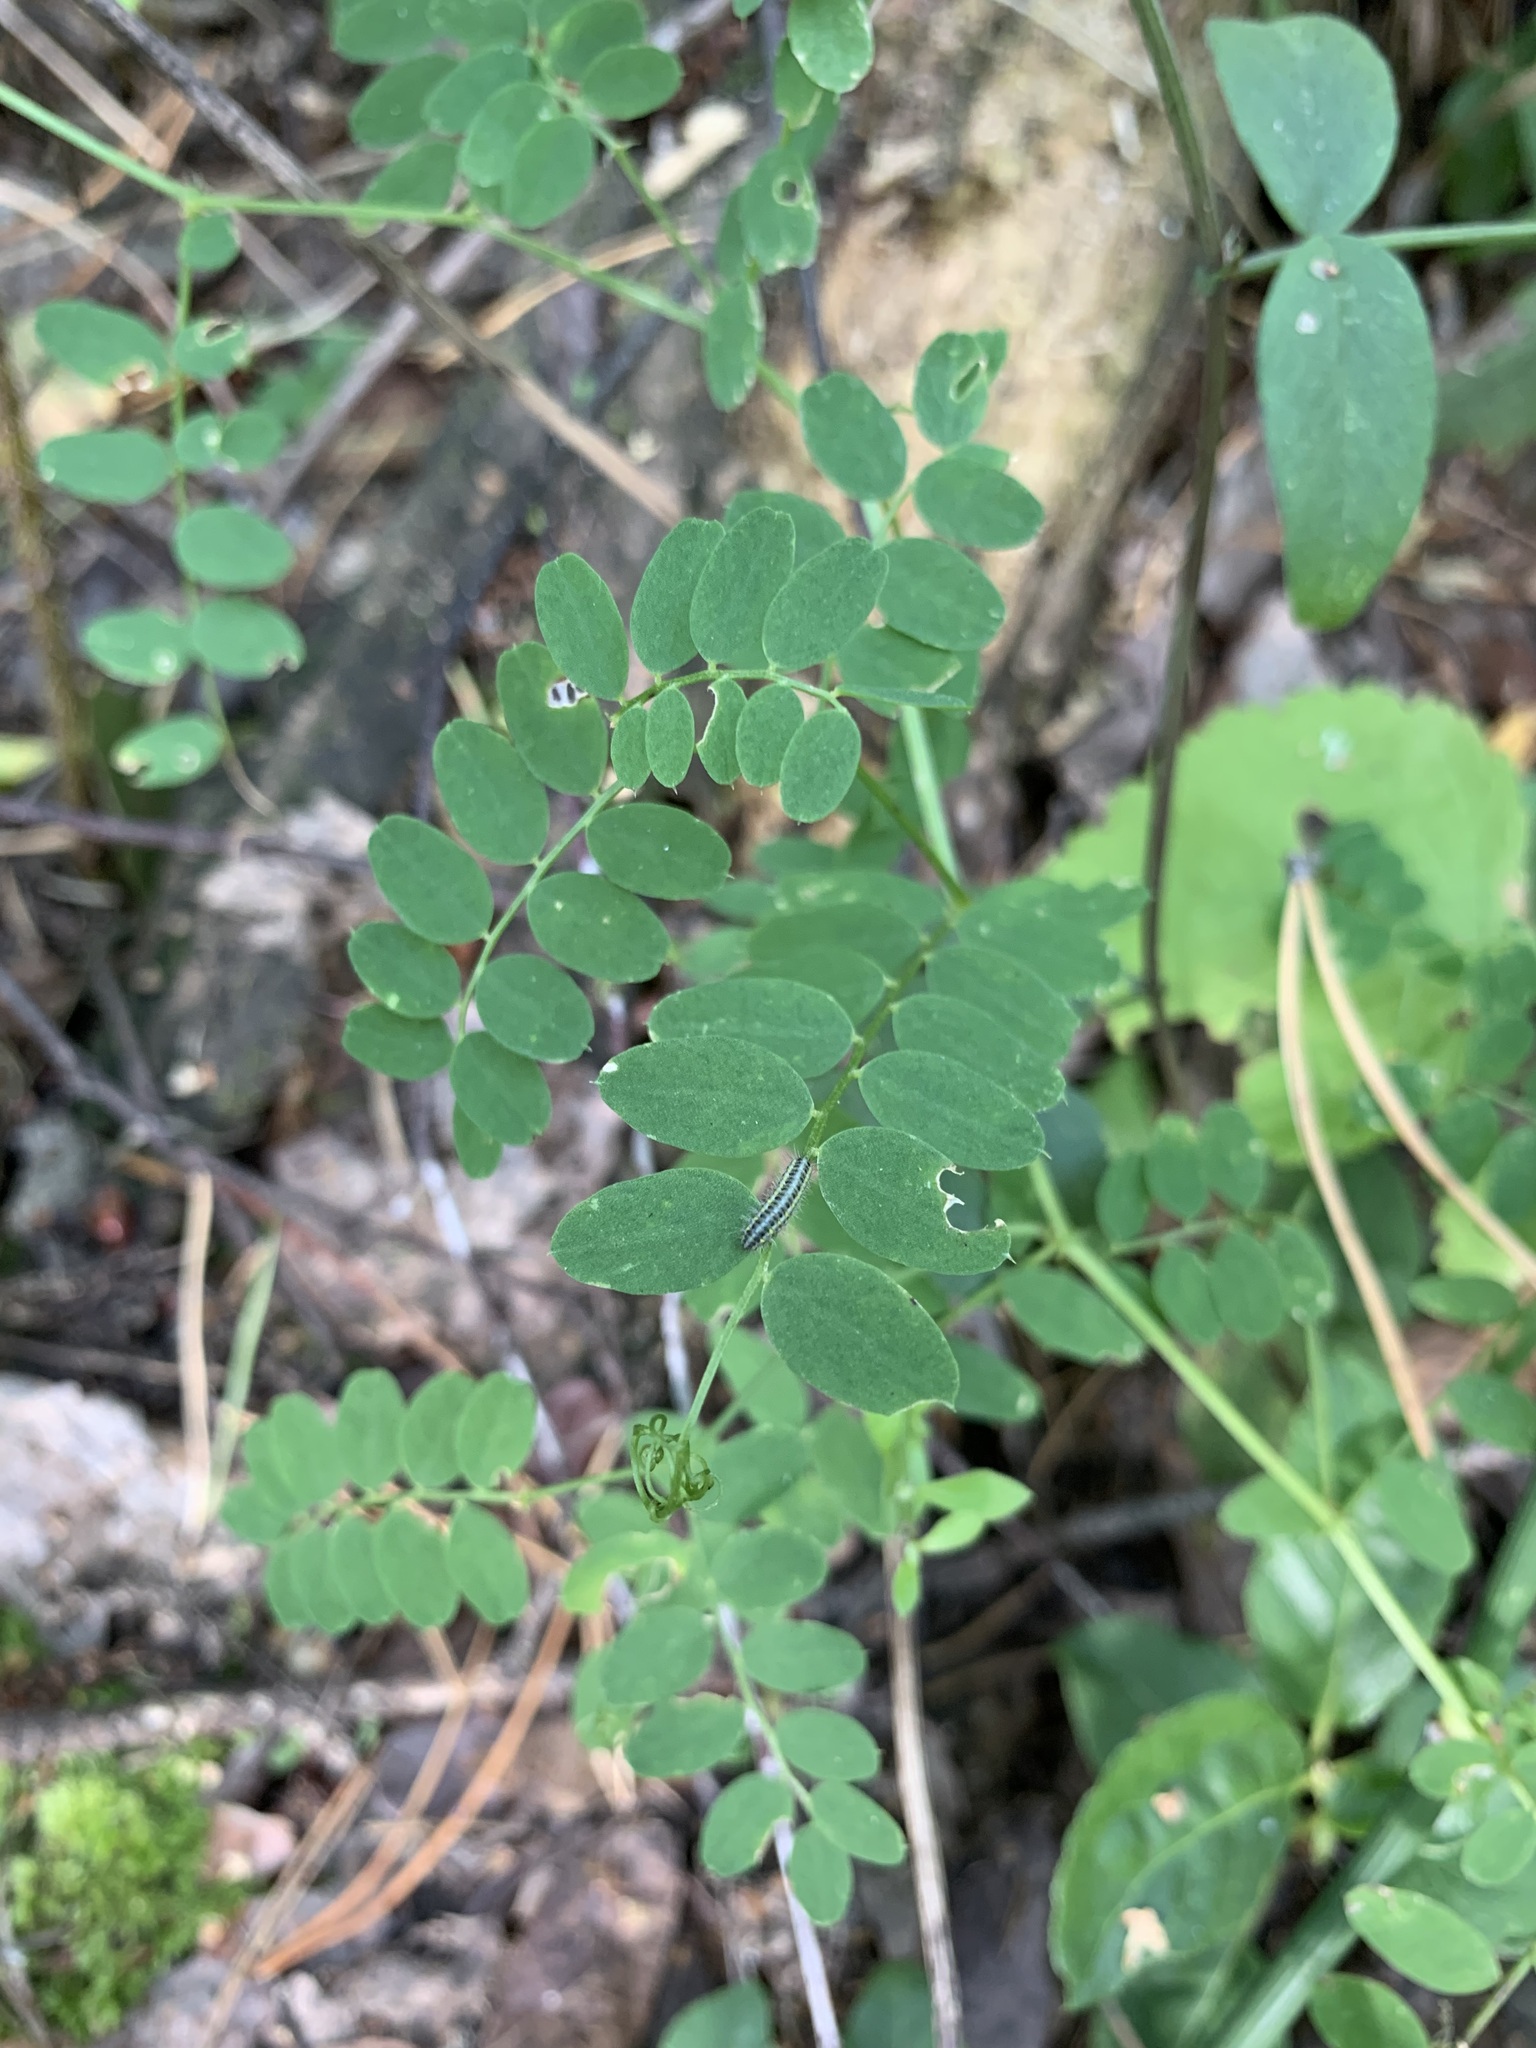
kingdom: Plantae
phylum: Tracheophyta
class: Magnoliopsida
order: Fabales
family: Fabaceae
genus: Vicia
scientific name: Vicia sylvatica
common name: Wood vetch
